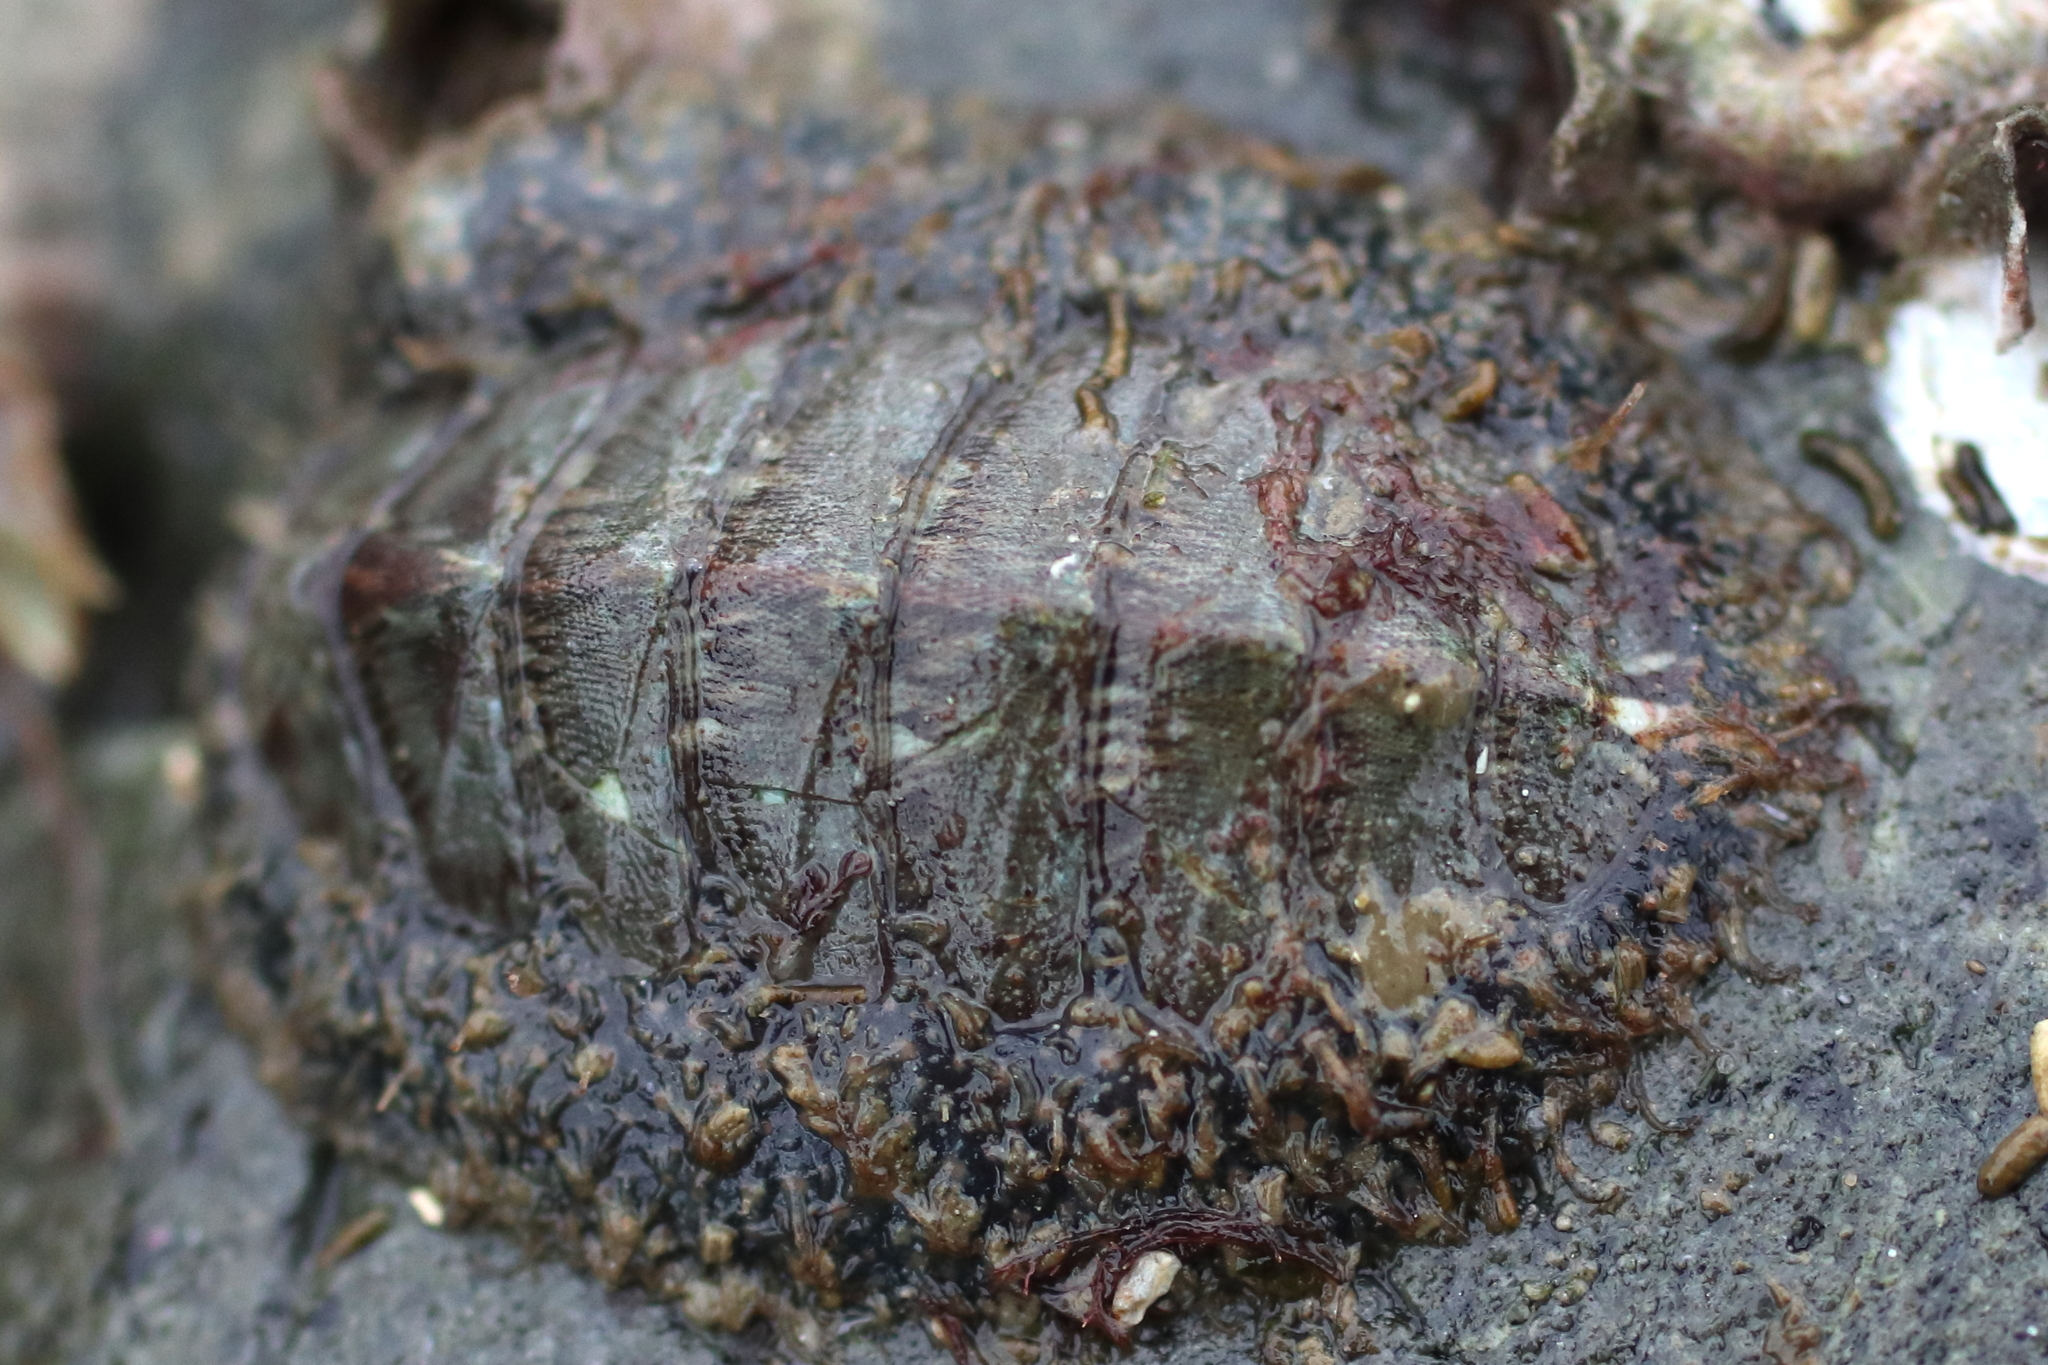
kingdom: Animalia
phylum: Mollusca
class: Polyplacophora
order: Chitonida
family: Mopaliidae
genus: Mopalia
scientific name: Mopalia lignosa
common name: Woody chiton
